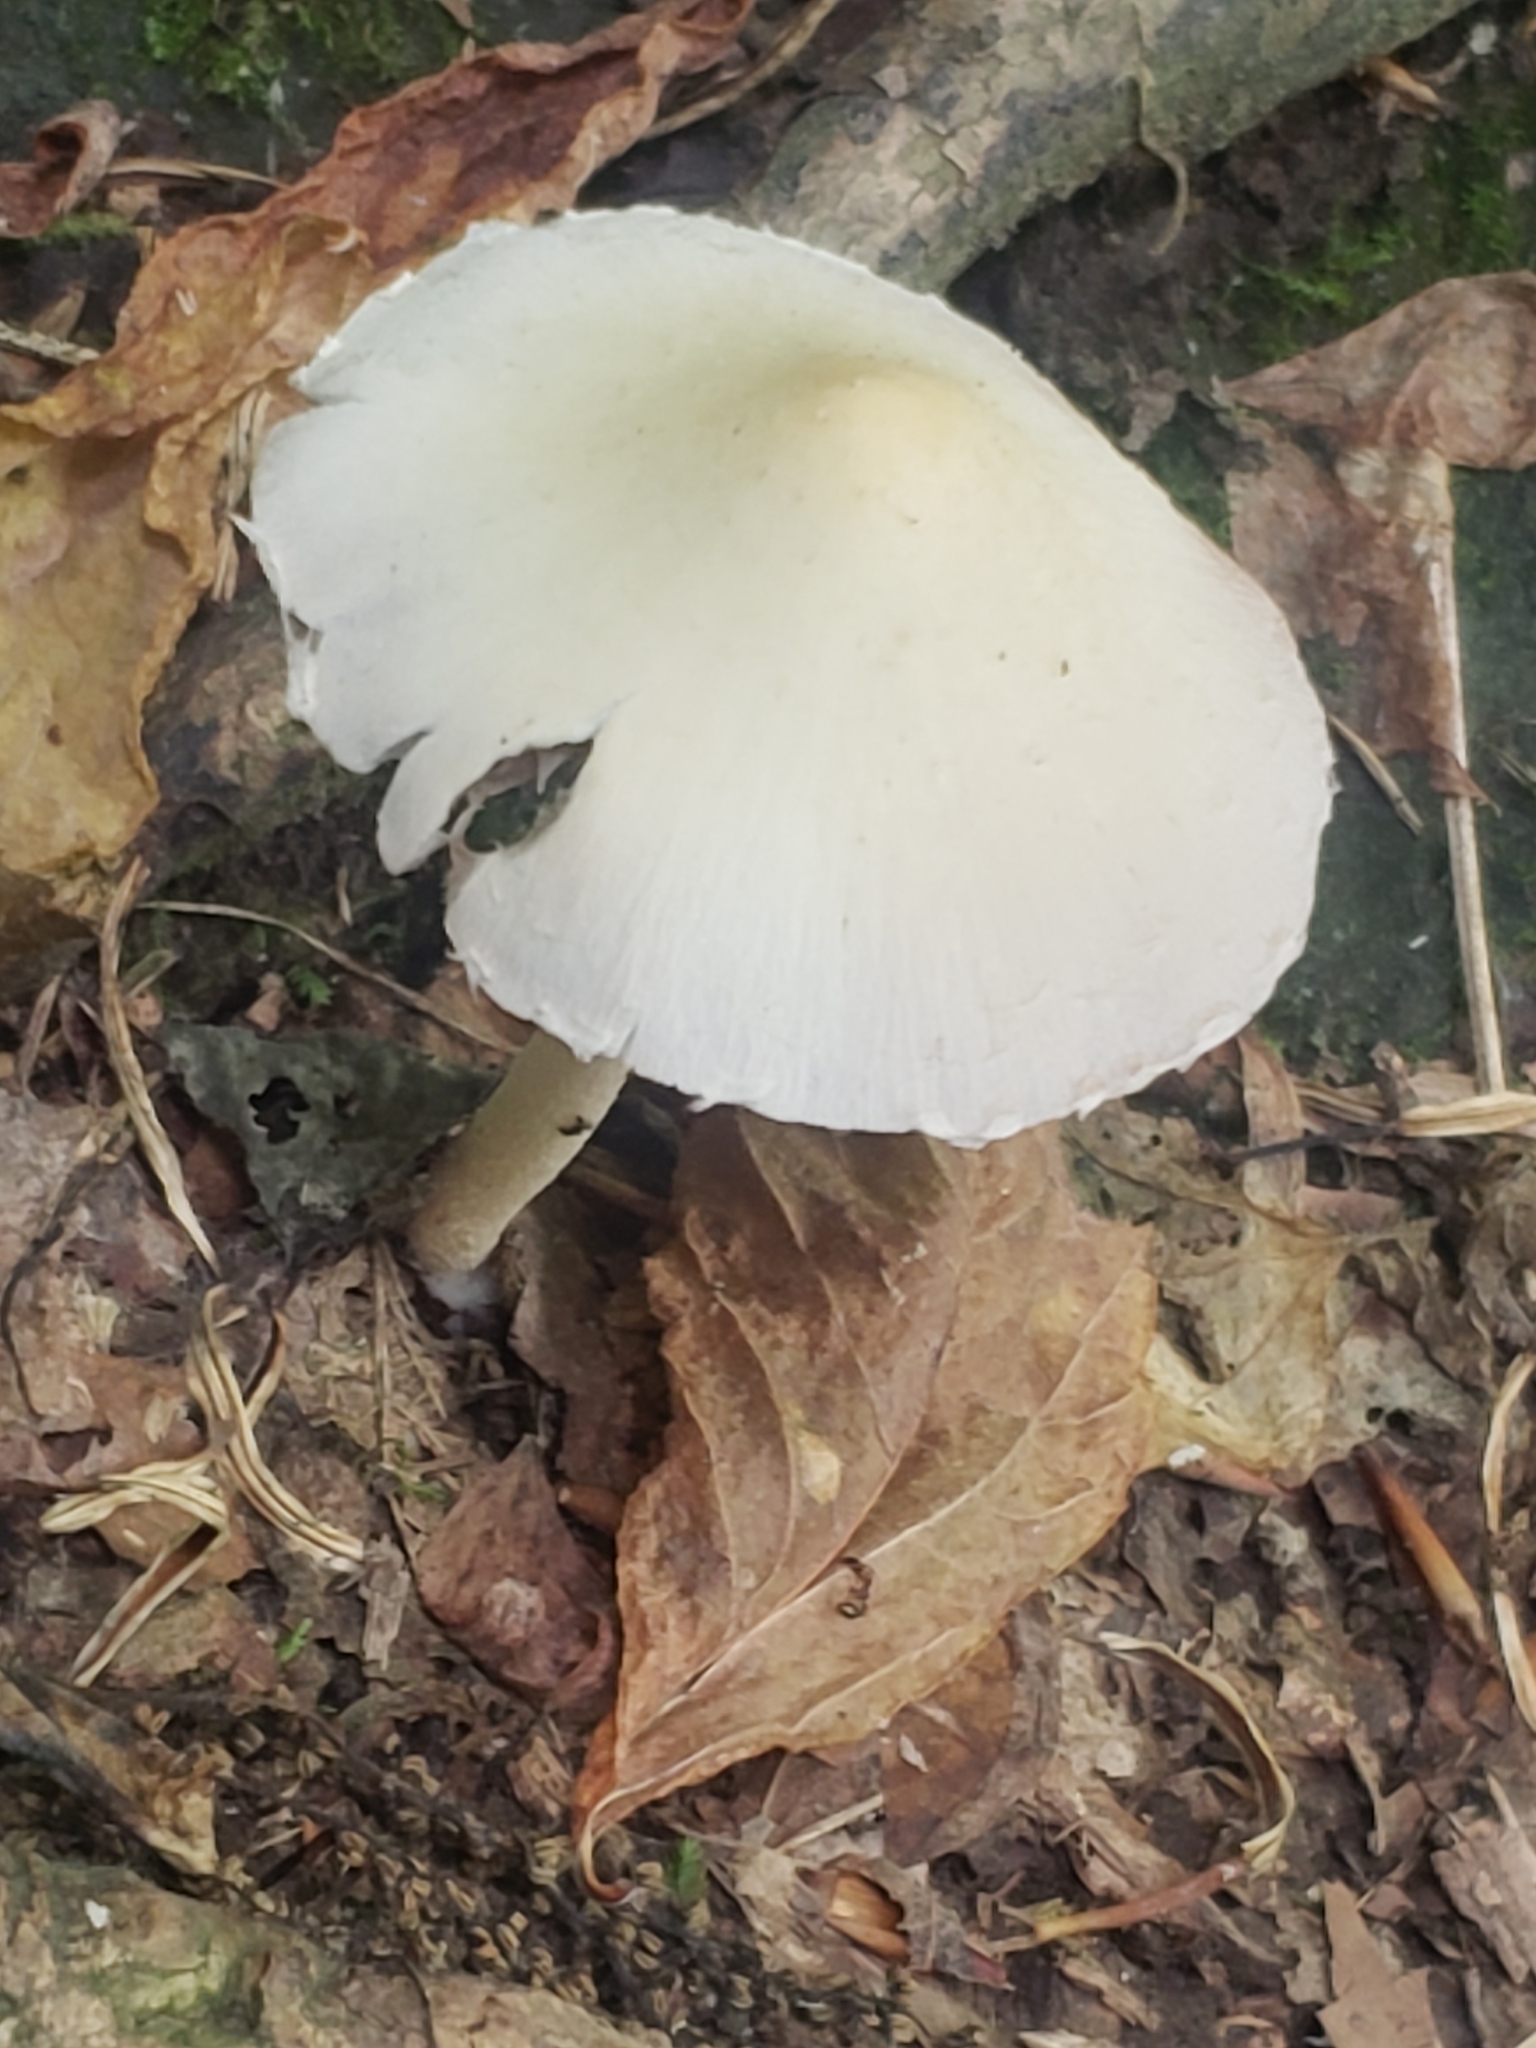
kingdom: Fungi
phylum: Basidiomycota
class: Agaricomycetes
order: Agaricales
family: Psathyrellaceae
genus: Candolleomyces
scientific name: Candolleomyces candolleanus
